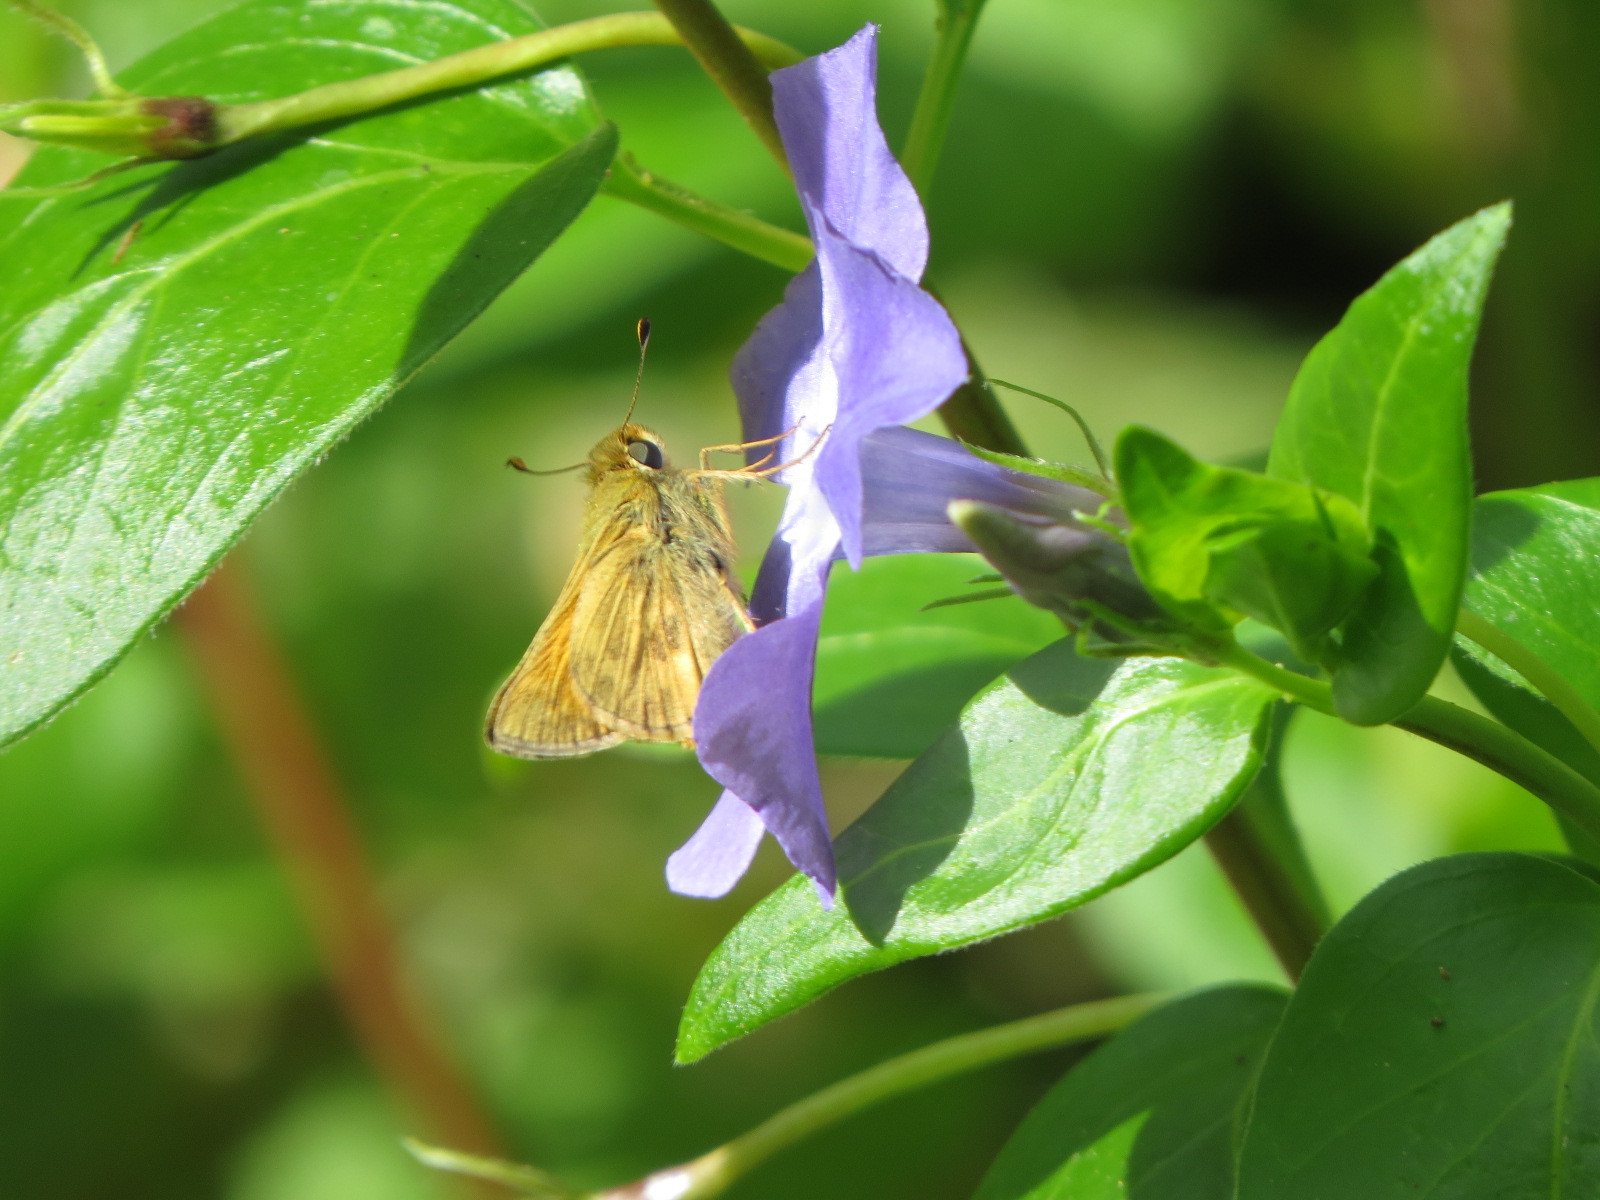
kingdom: Animalia
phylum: Arthropoda
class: Insecta
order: Lepidoptera
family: Hesperiidae
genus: Atalopedes
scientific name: Atalopedes campestris
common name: Sachem
